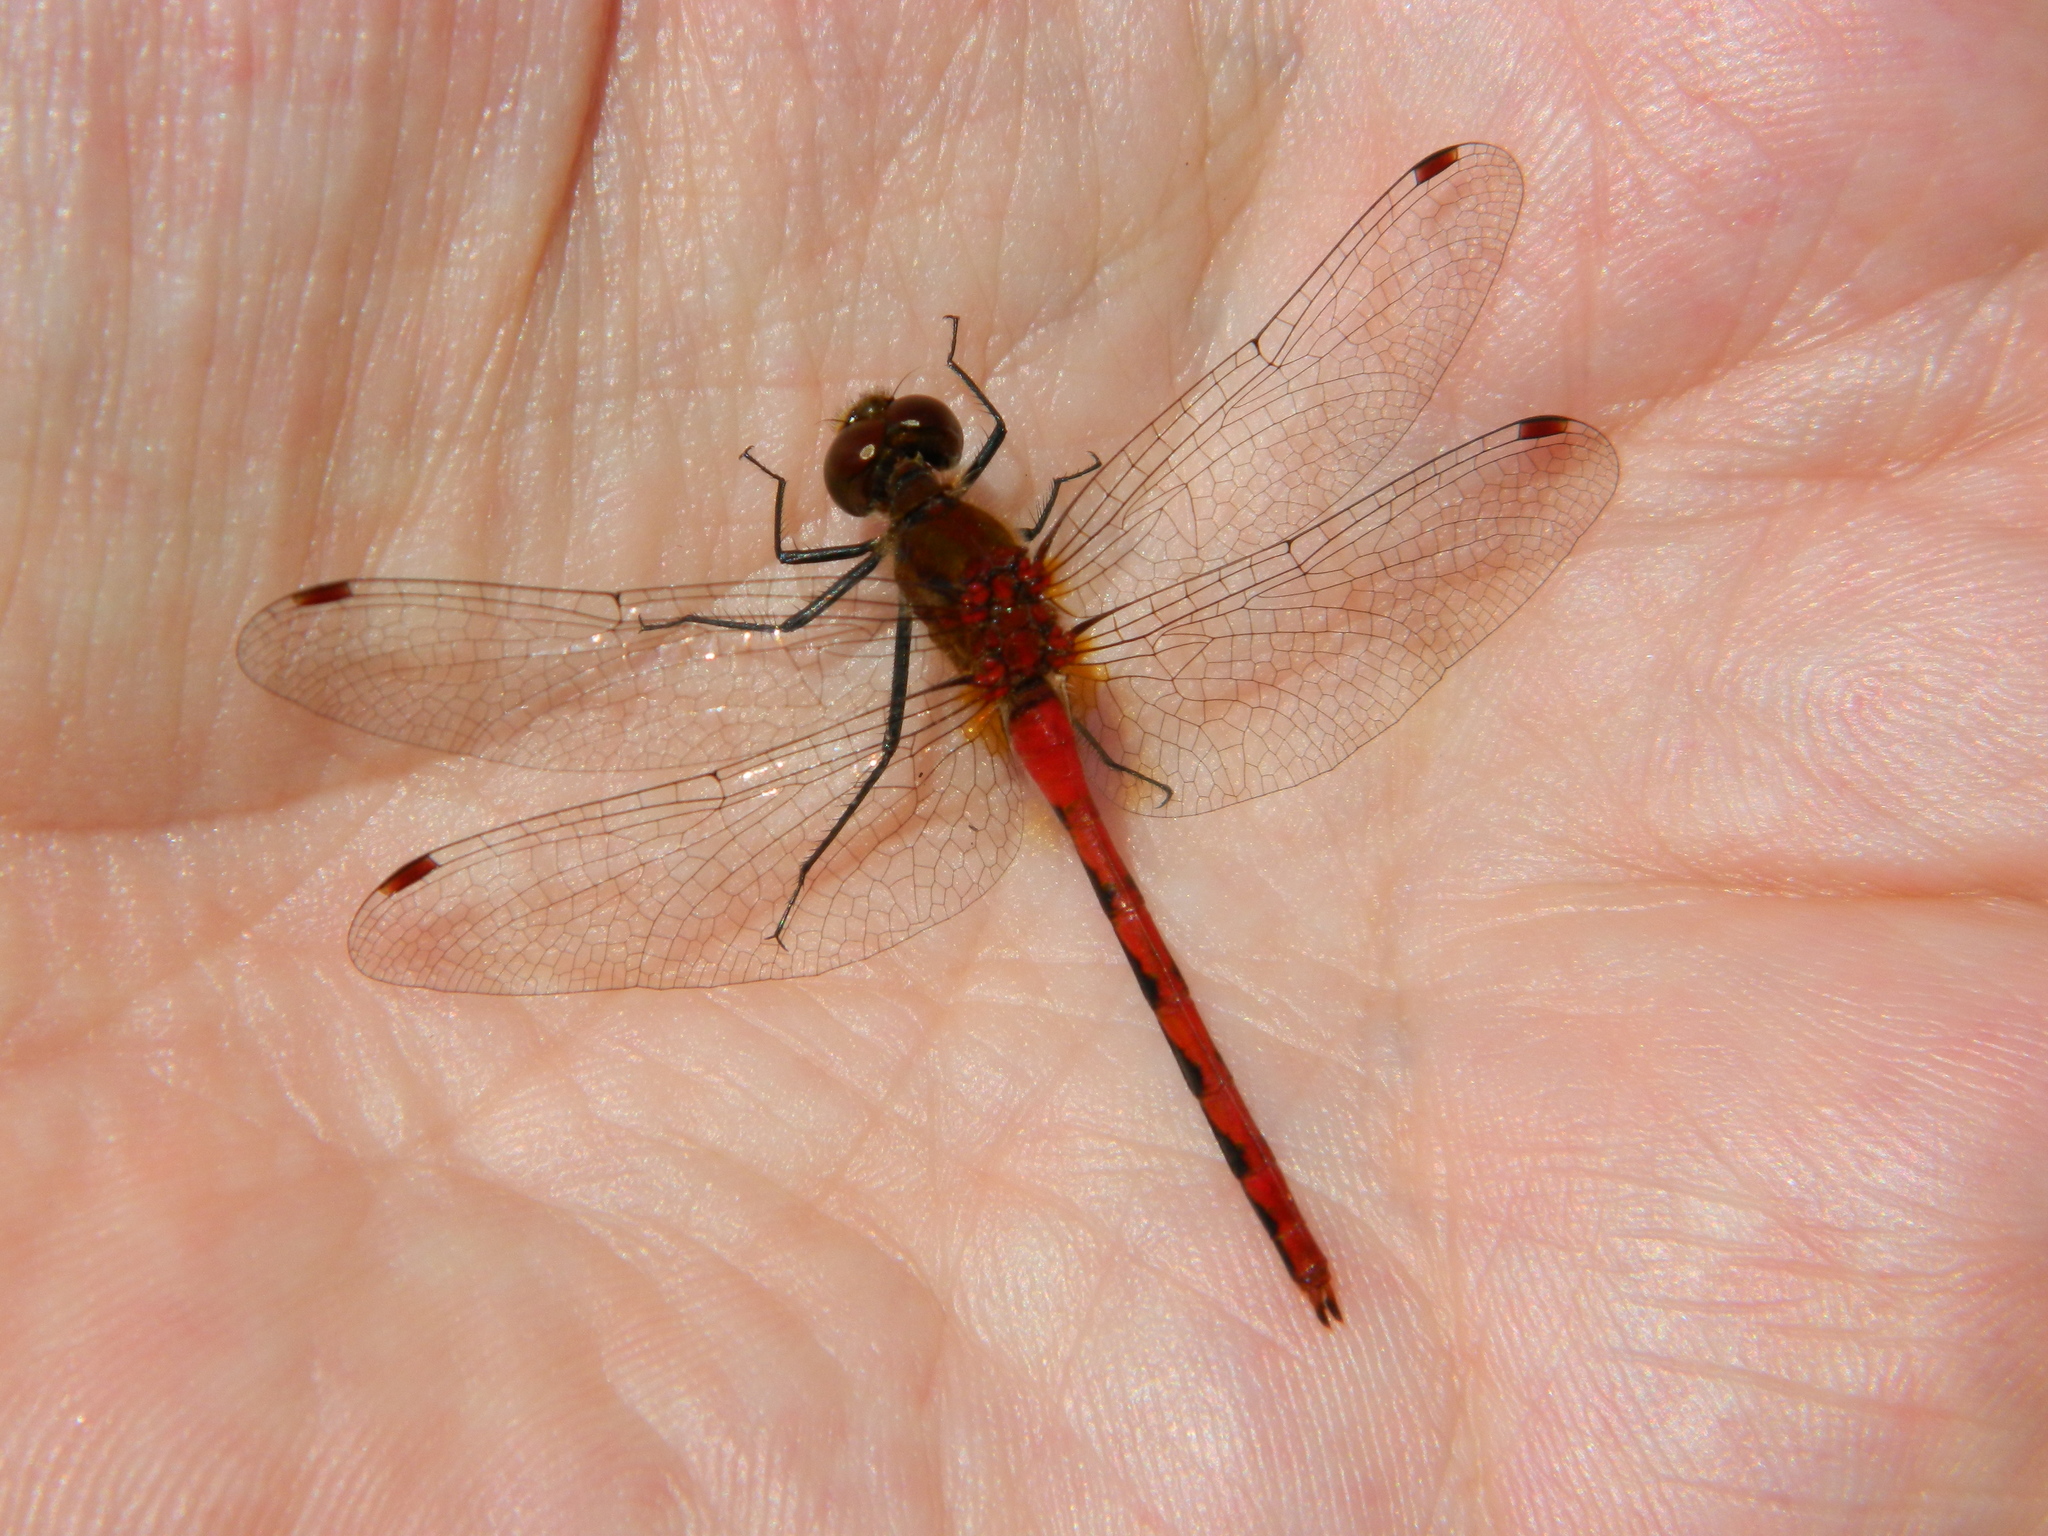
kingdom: Animalia
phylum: Arthropoda
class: Insecta
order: Odonata
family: Libellulidae
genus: Sympetrum
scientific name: Sympetrum obtrusum
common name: White-faced meadowhawk
